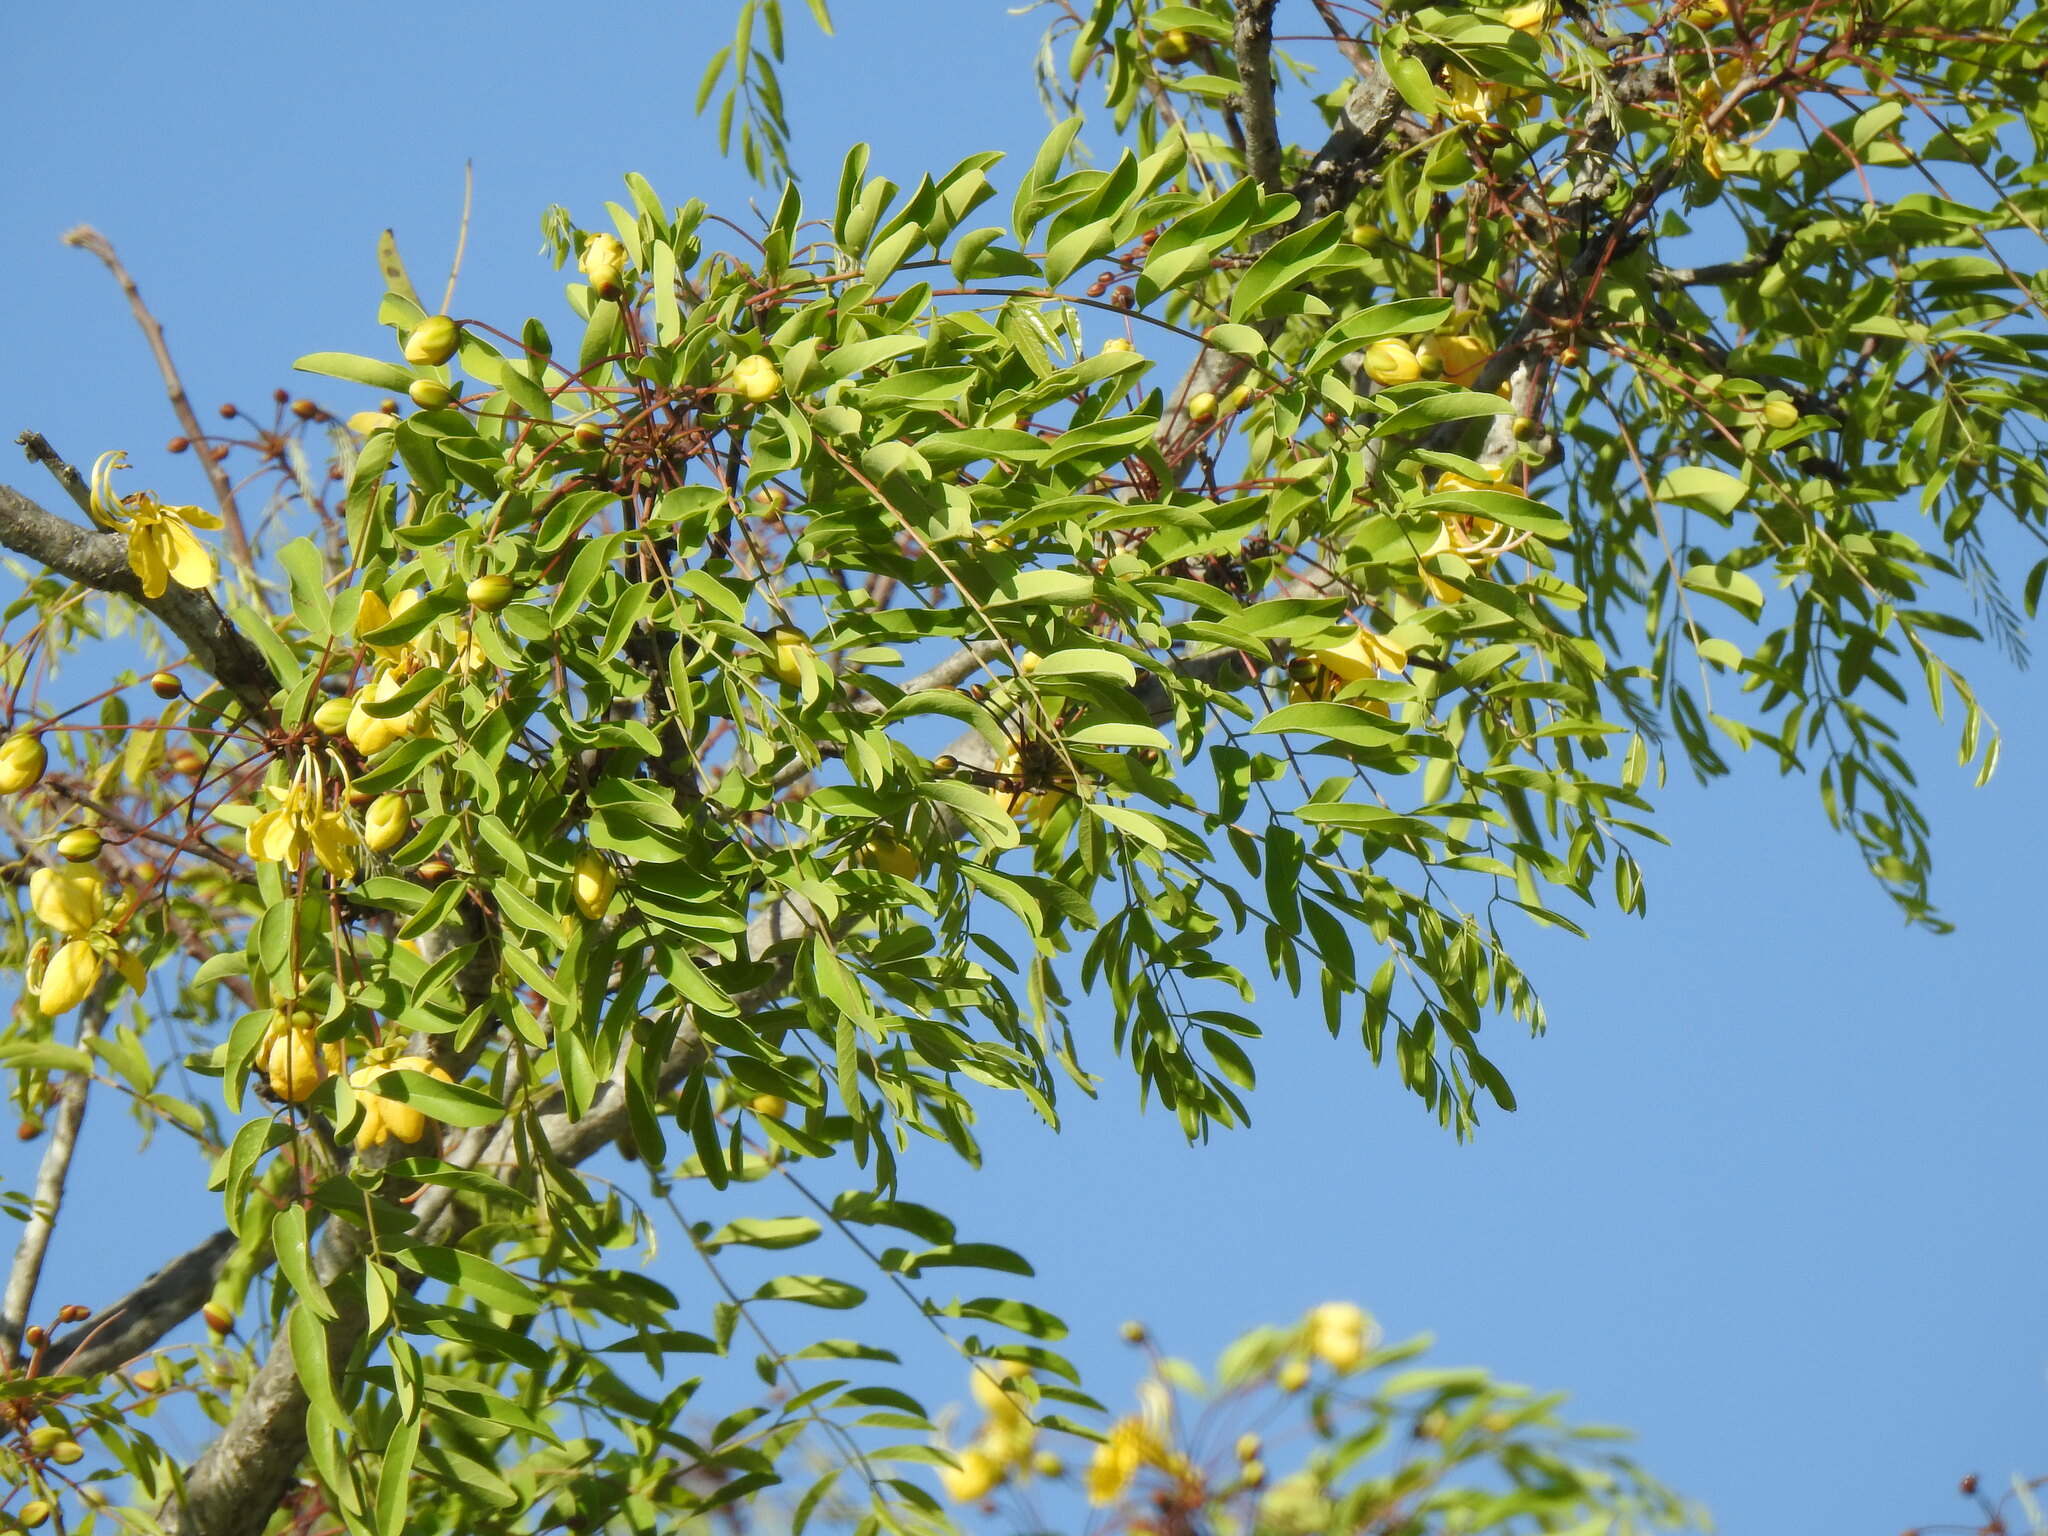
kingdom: Plantae
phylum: Tracheophyta
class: Magnoliopsida
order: Fabales
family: Fabaceae
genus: Cassia
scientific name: Cassia abbreviata
